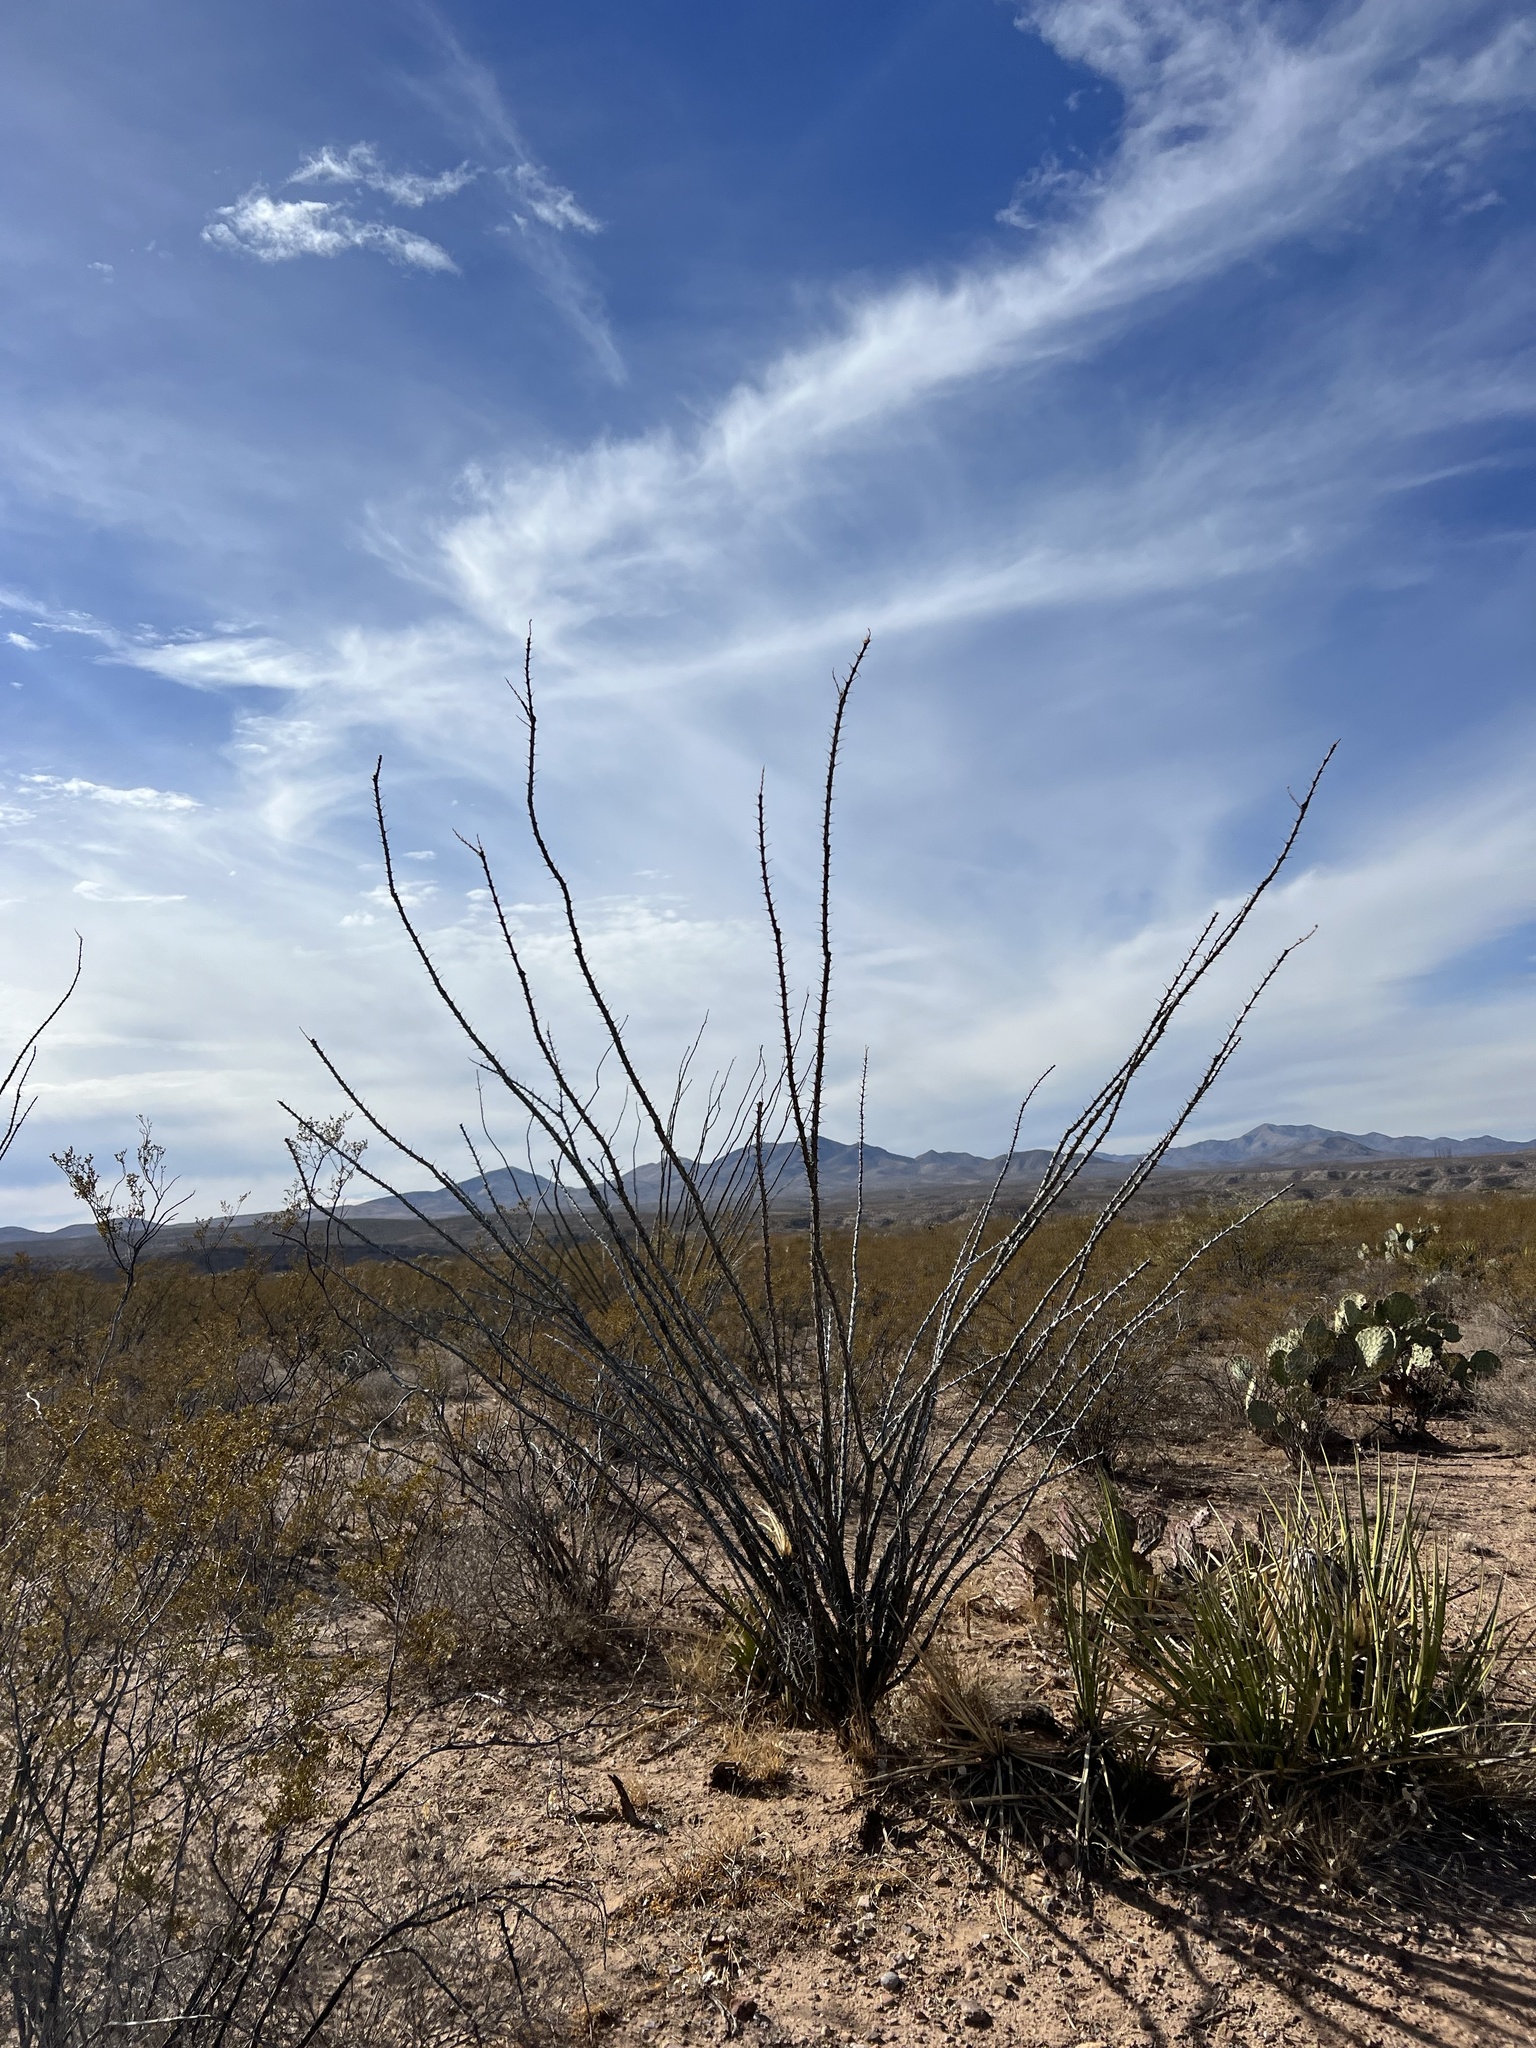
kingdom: Plantae
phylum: Tracheophyta
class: Magnoliopsida
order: Ericales
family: Fouquieriaceae
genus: Fouquieria
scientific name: Fouquieria splendens
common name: Vine-cactus
